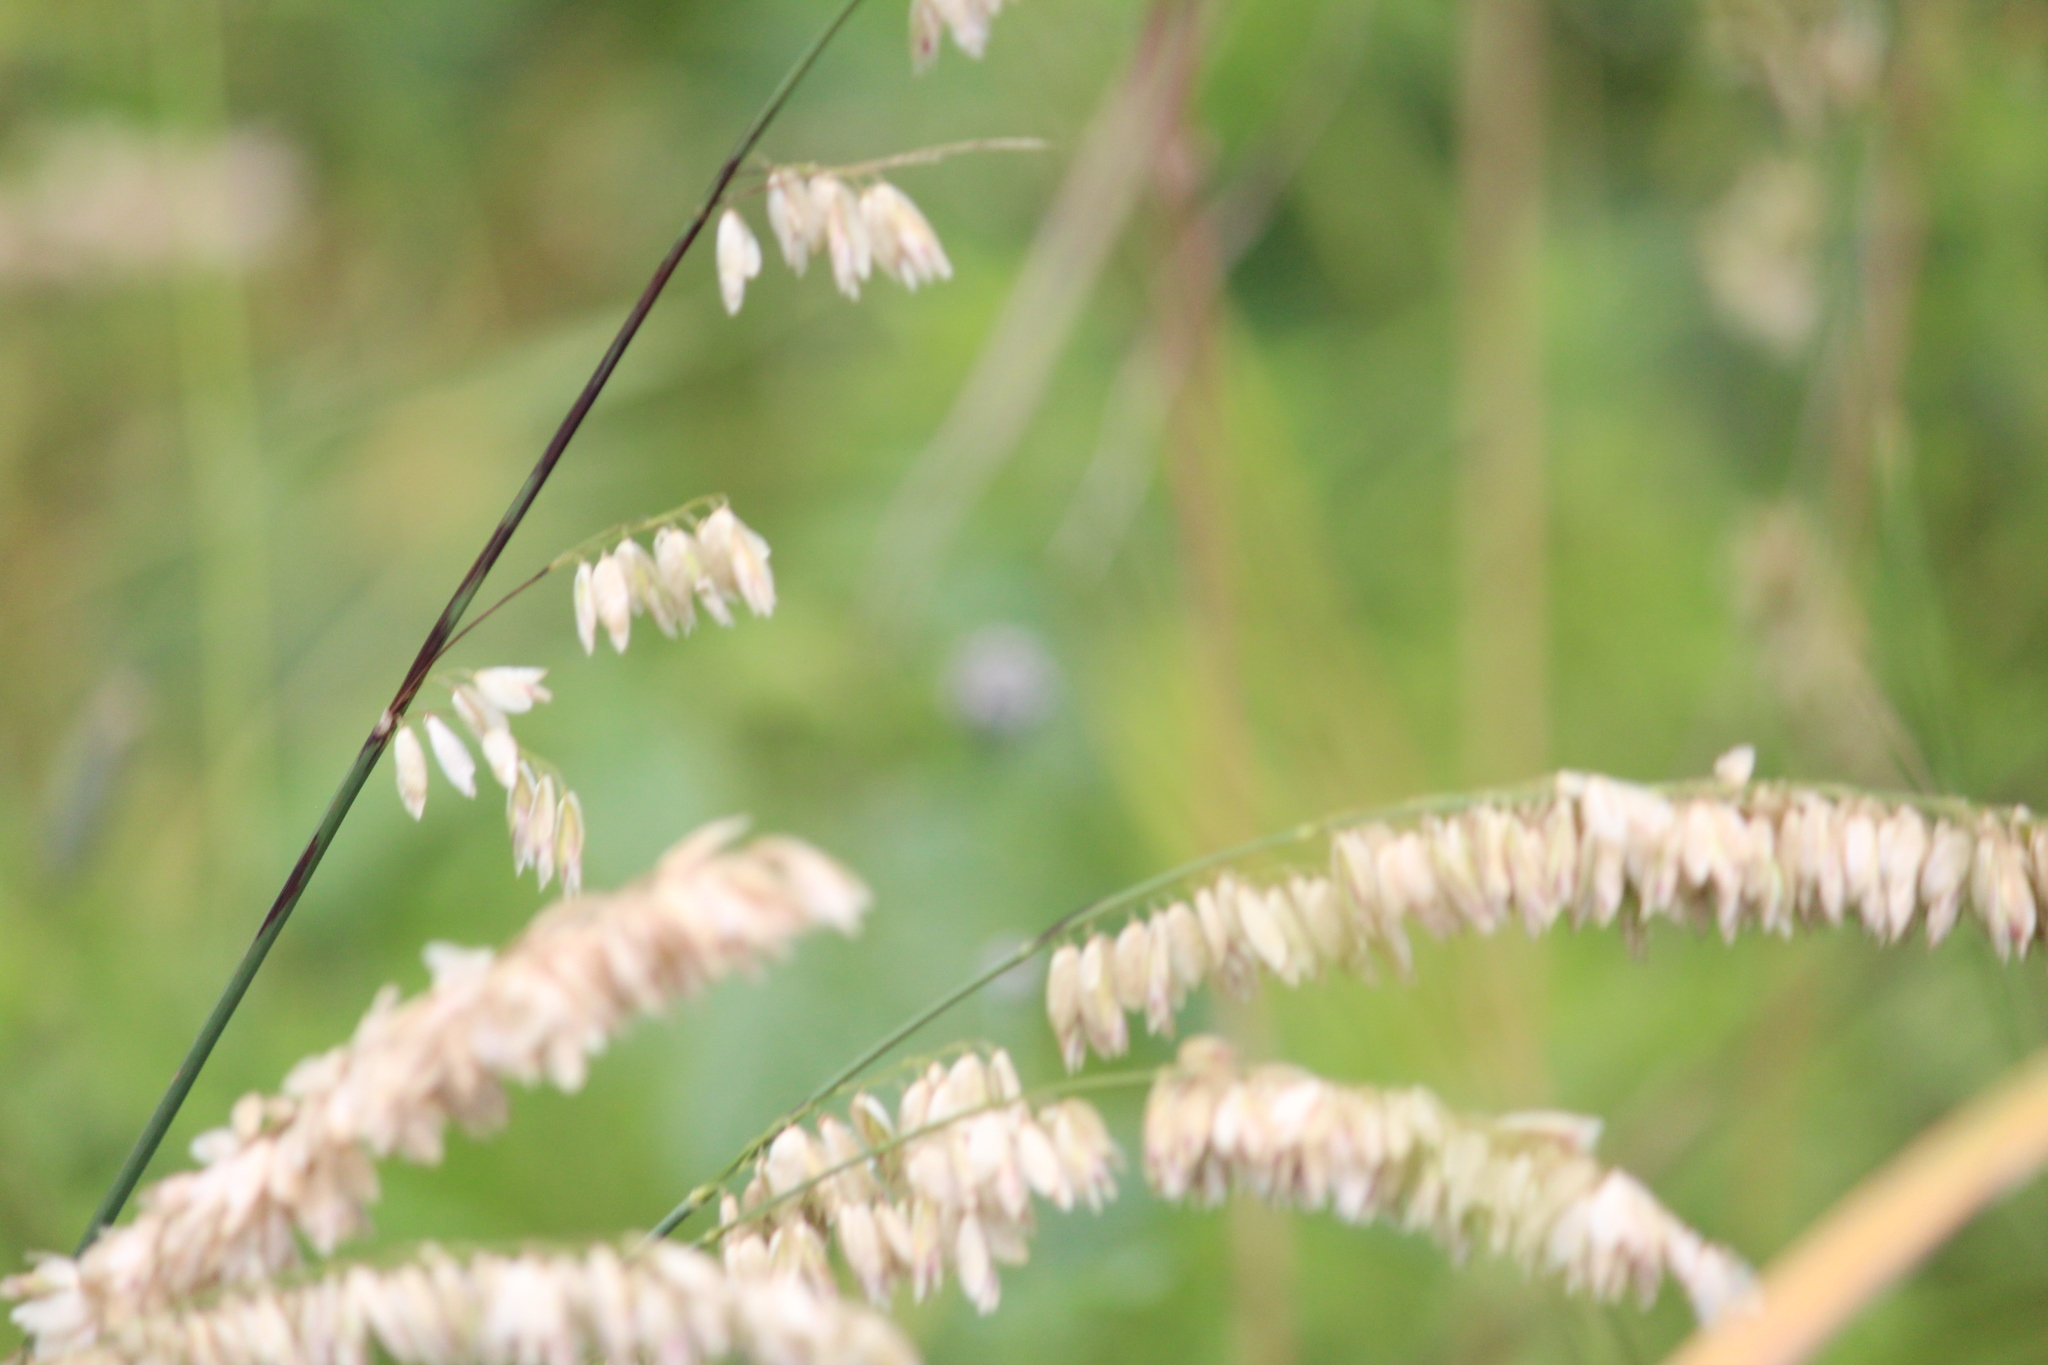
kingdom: Plantae
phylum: Tracheophyta
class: Liliopsida
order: Poales
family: Poaceae
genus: Melica
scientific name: Melica altissima
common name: Siberian melicgrass
